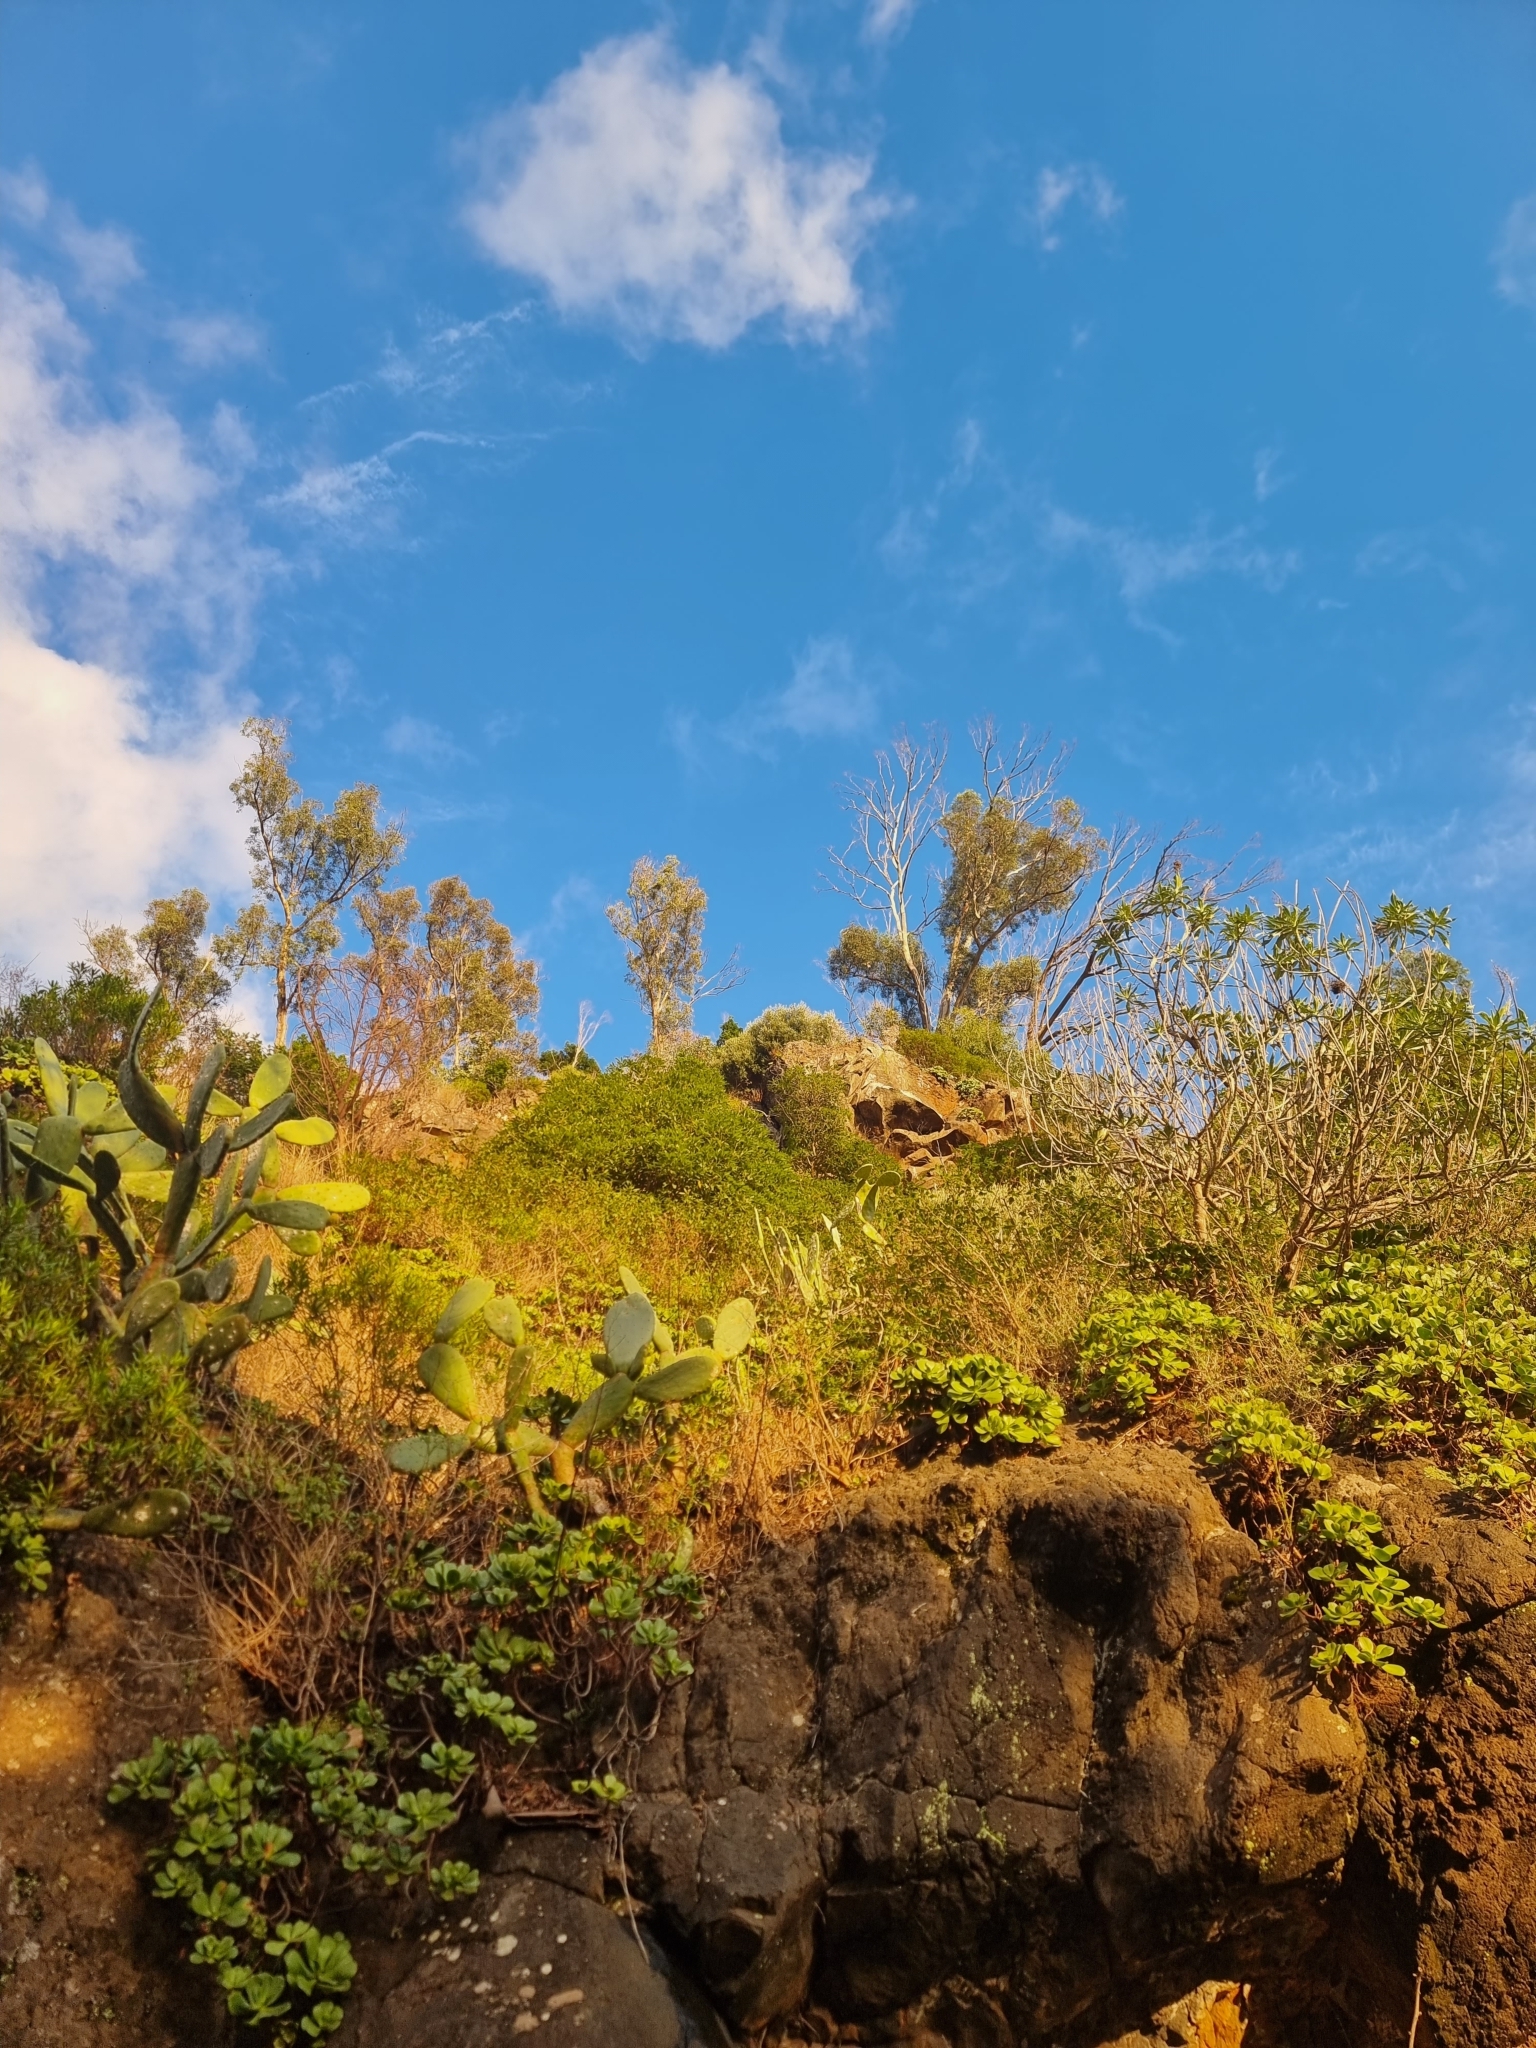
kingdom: Plantae
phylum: Tracheophyta
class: Magnoliopsida
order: Myrtales
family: Myrtaceae
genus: Eucalyptus
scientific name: Eucalyptus globulus
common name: Southern blue-gum
